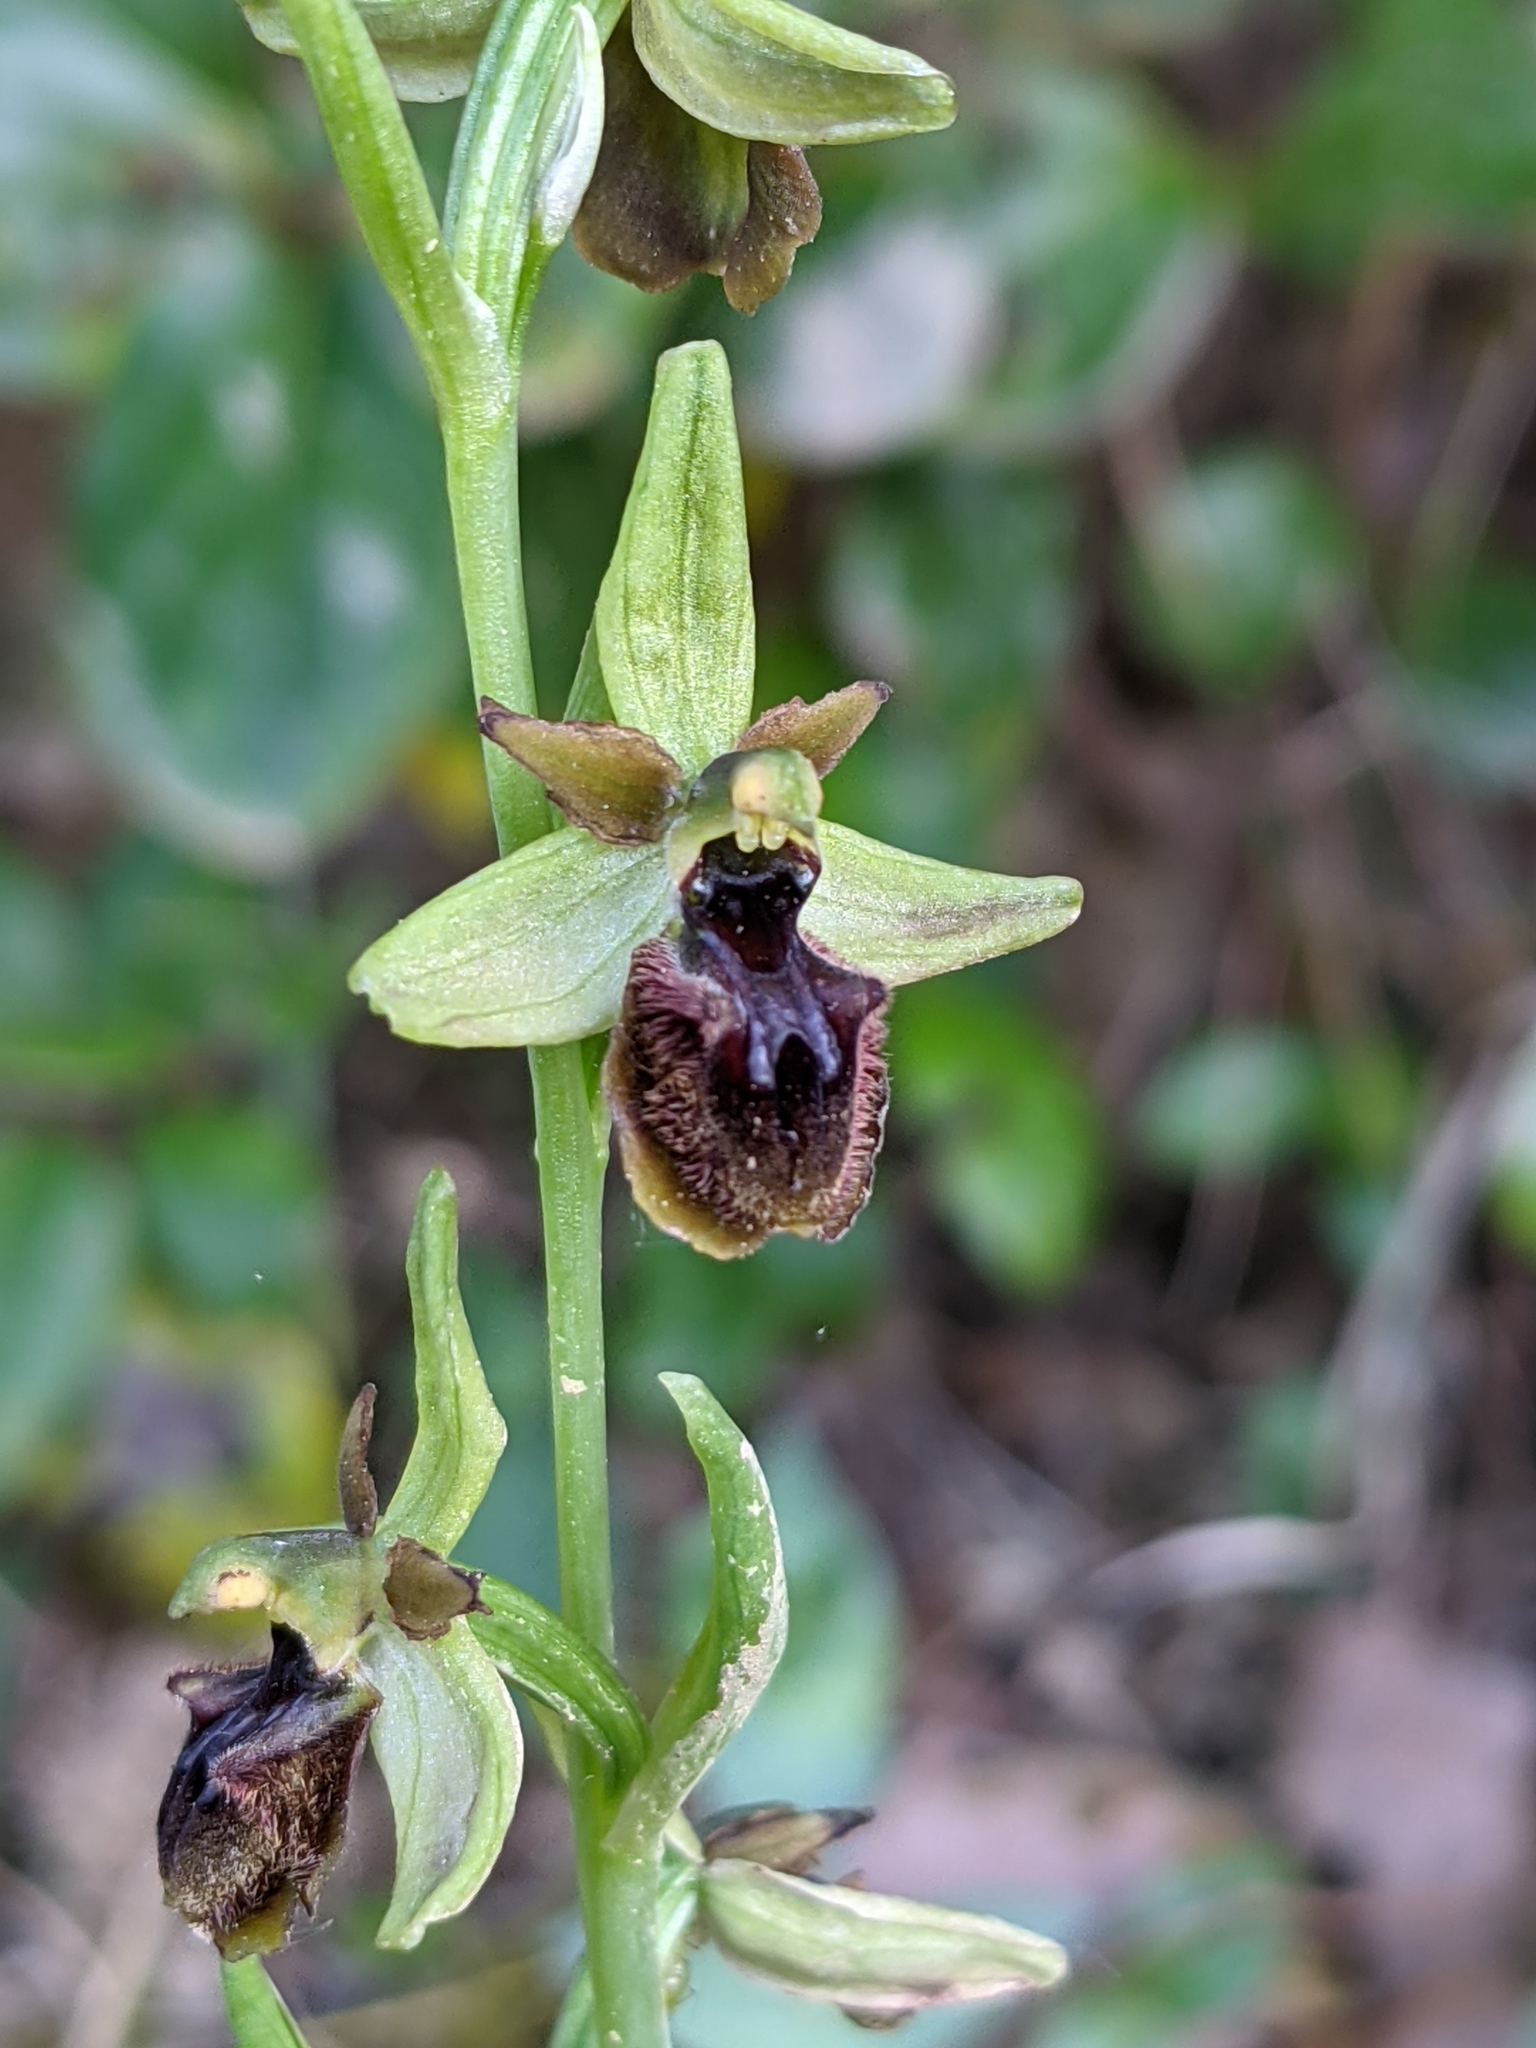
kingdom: Plantae
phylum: Tracheophyta
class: Liliopsida
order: Asparagales
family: Orchidaceae
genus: Ophrys
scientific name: Ophrys sphegodes
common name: Early spider-orchid
